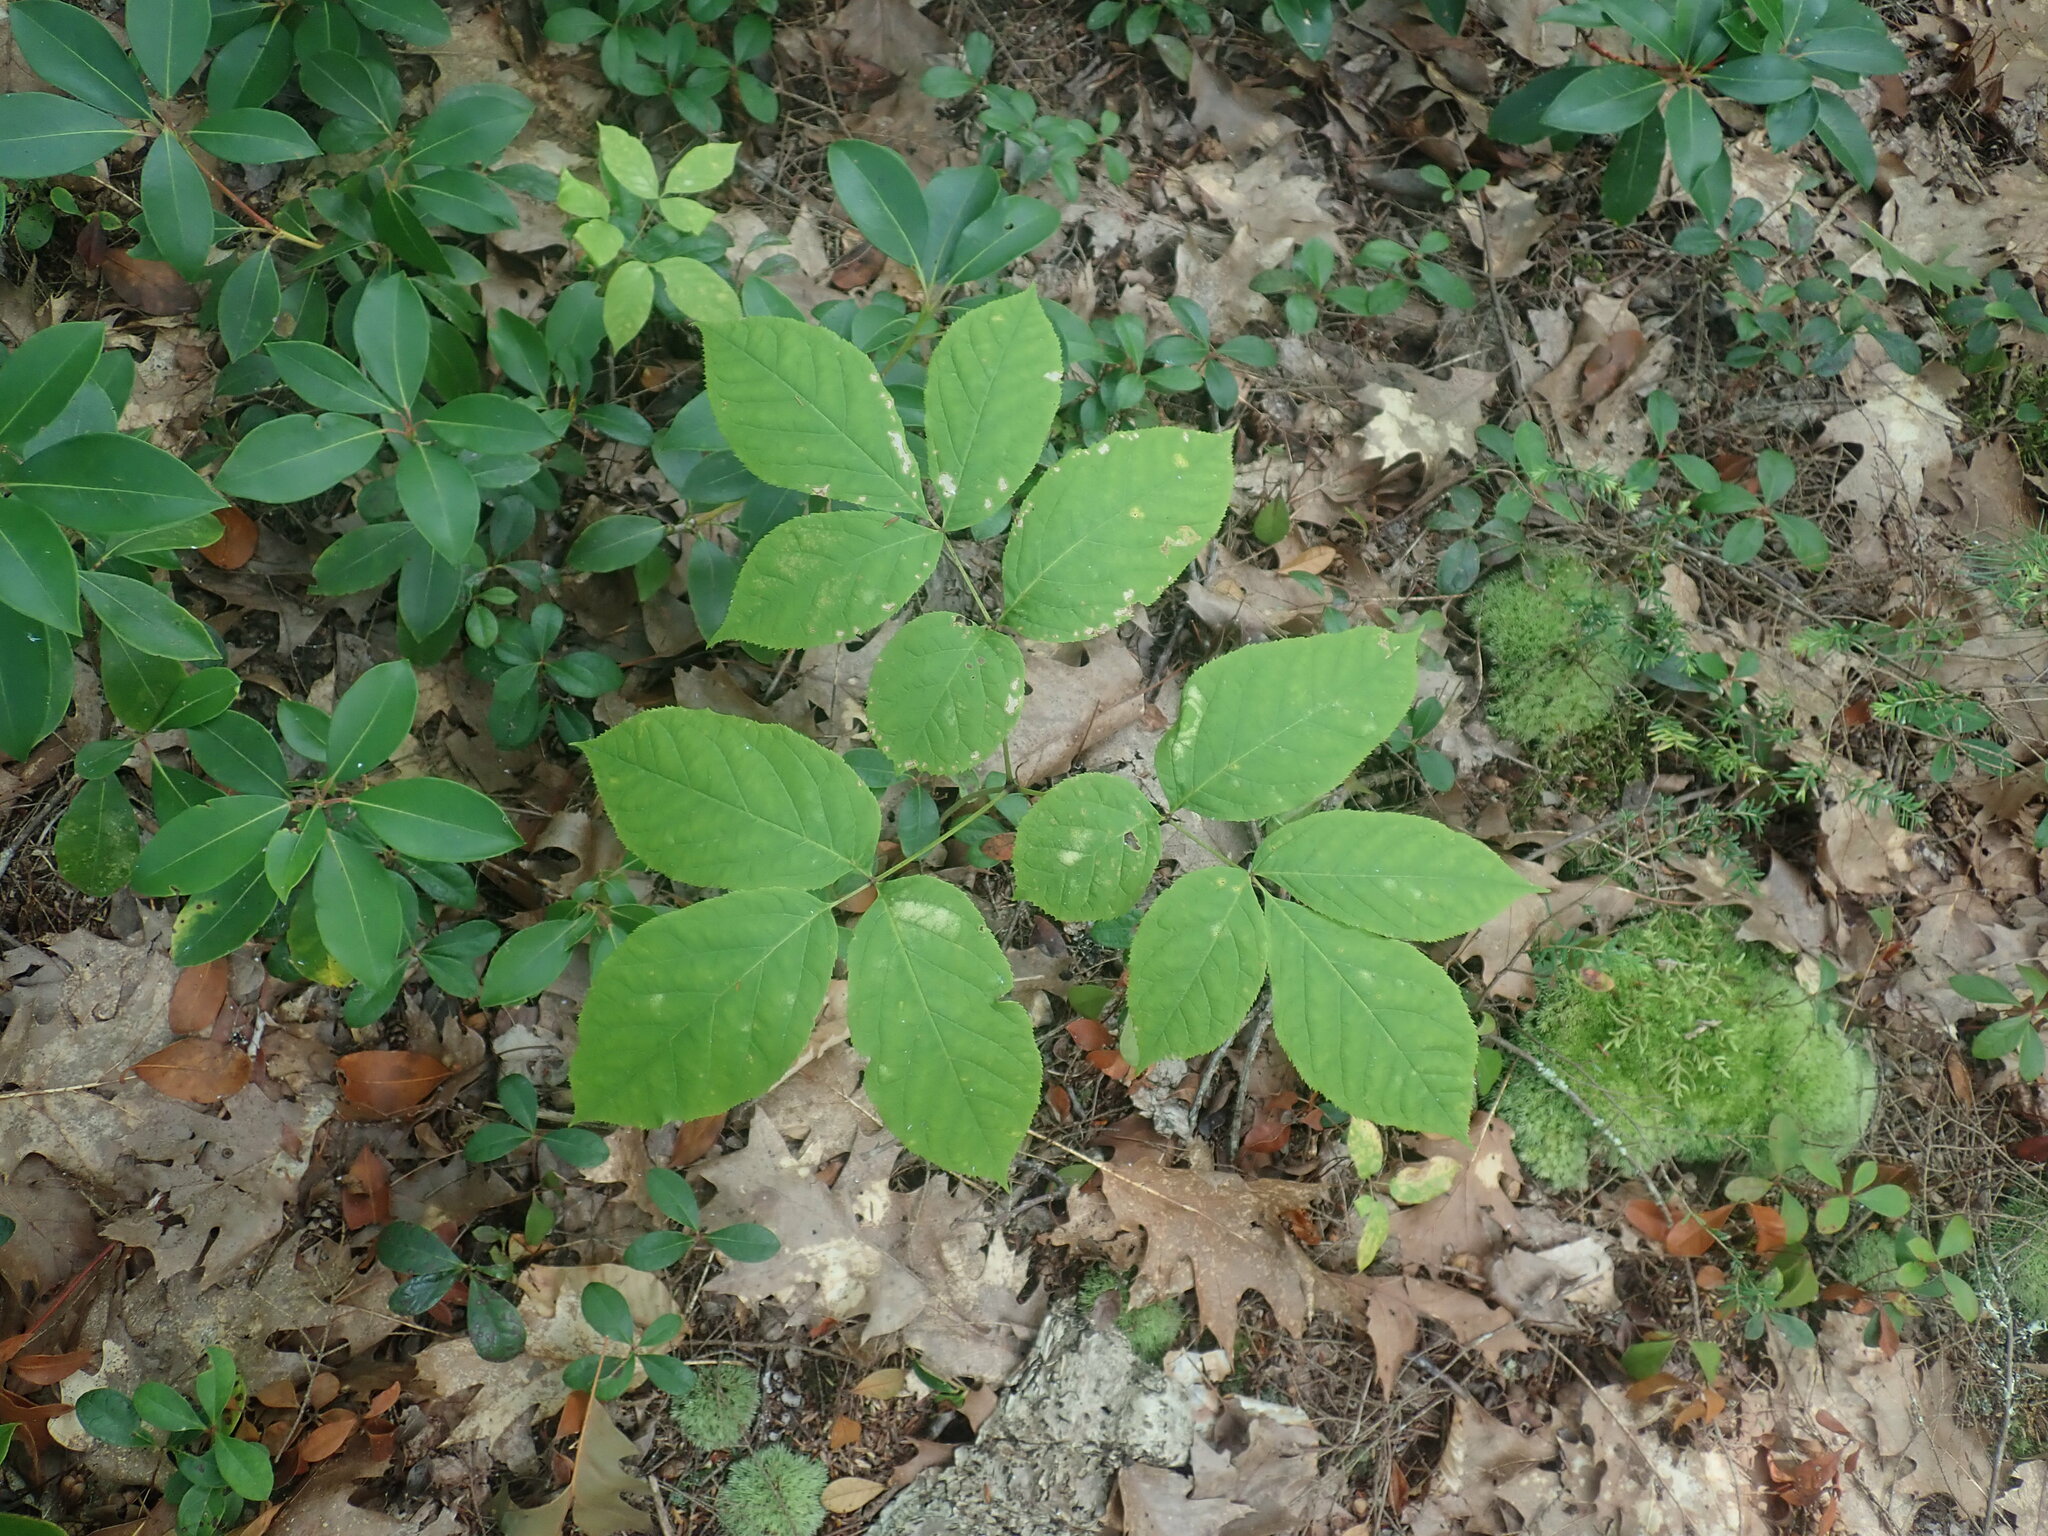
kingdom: Plantae
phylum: Tracheophyta
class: Magnoliopsida
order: Apiales
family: Araliaceae
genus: Aralia
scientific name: Aralia nudicaulis
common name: Wild sarsaparilla
